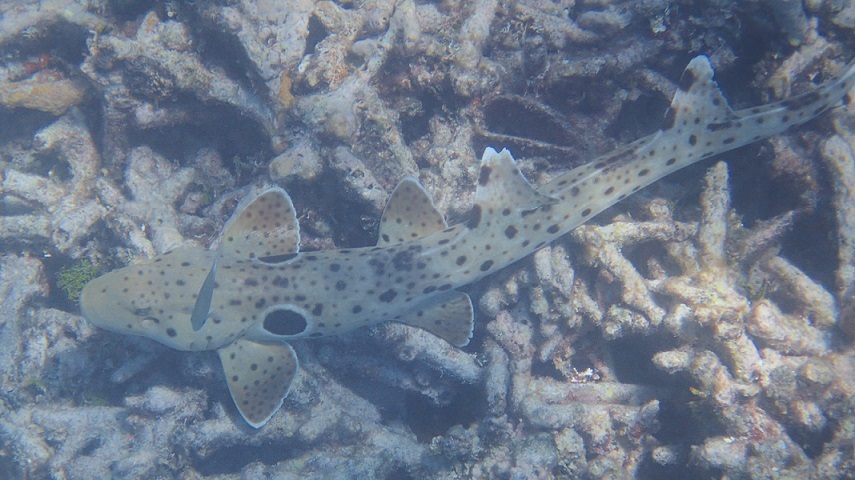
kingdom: Animalia
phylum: Chordata
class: Elasmobranchii
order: Orectolobiformes
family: Hemiscylliidae
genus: Hemiscyllium
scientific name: Hemiscyllium ocellatum
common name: Epaulette shark
